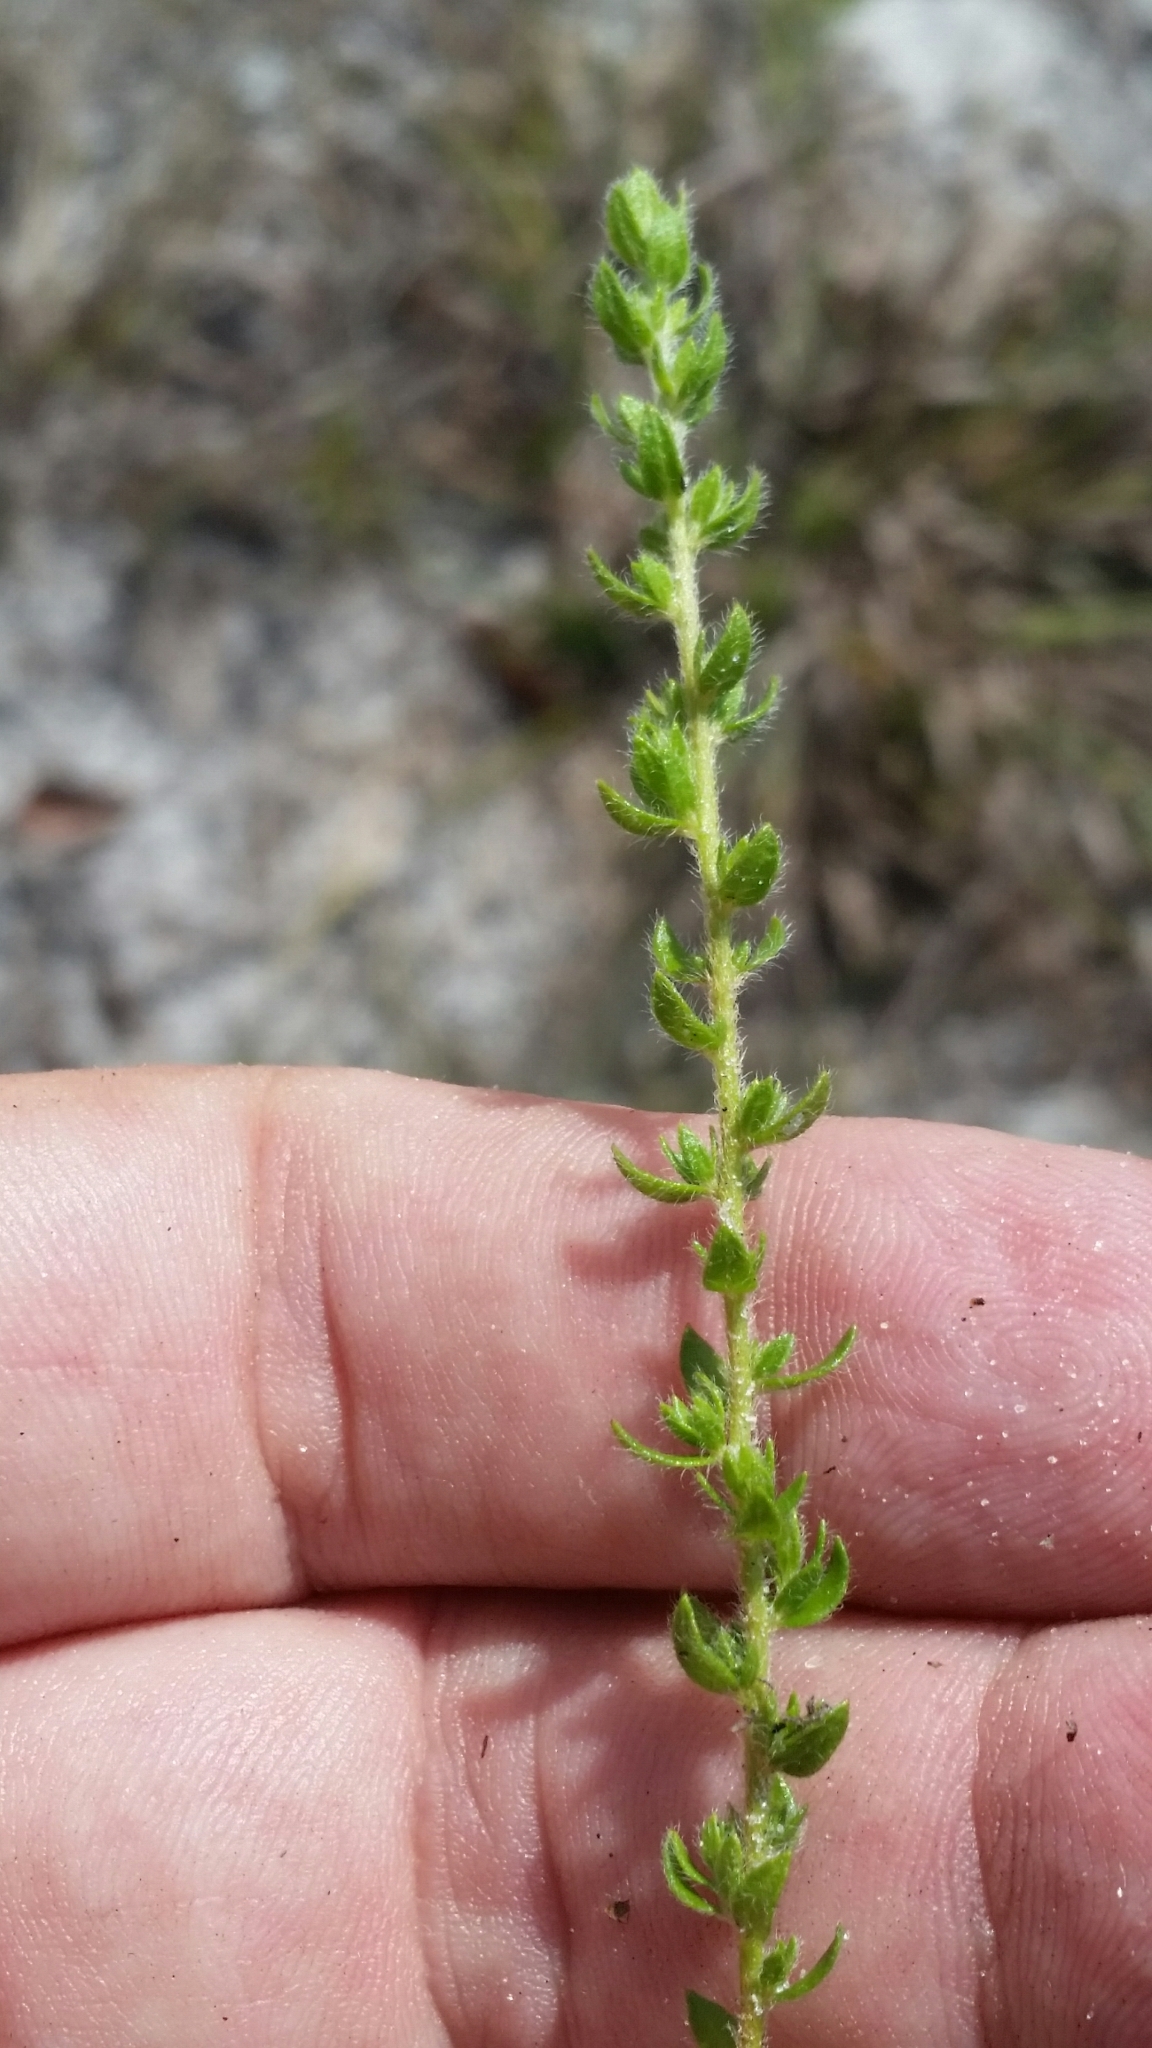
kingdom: Plantae
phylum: Tracheophyta
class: Magnoliopsida
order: Malvales
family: Cistaceae
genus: Lechea
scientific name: Lechea divaricata
